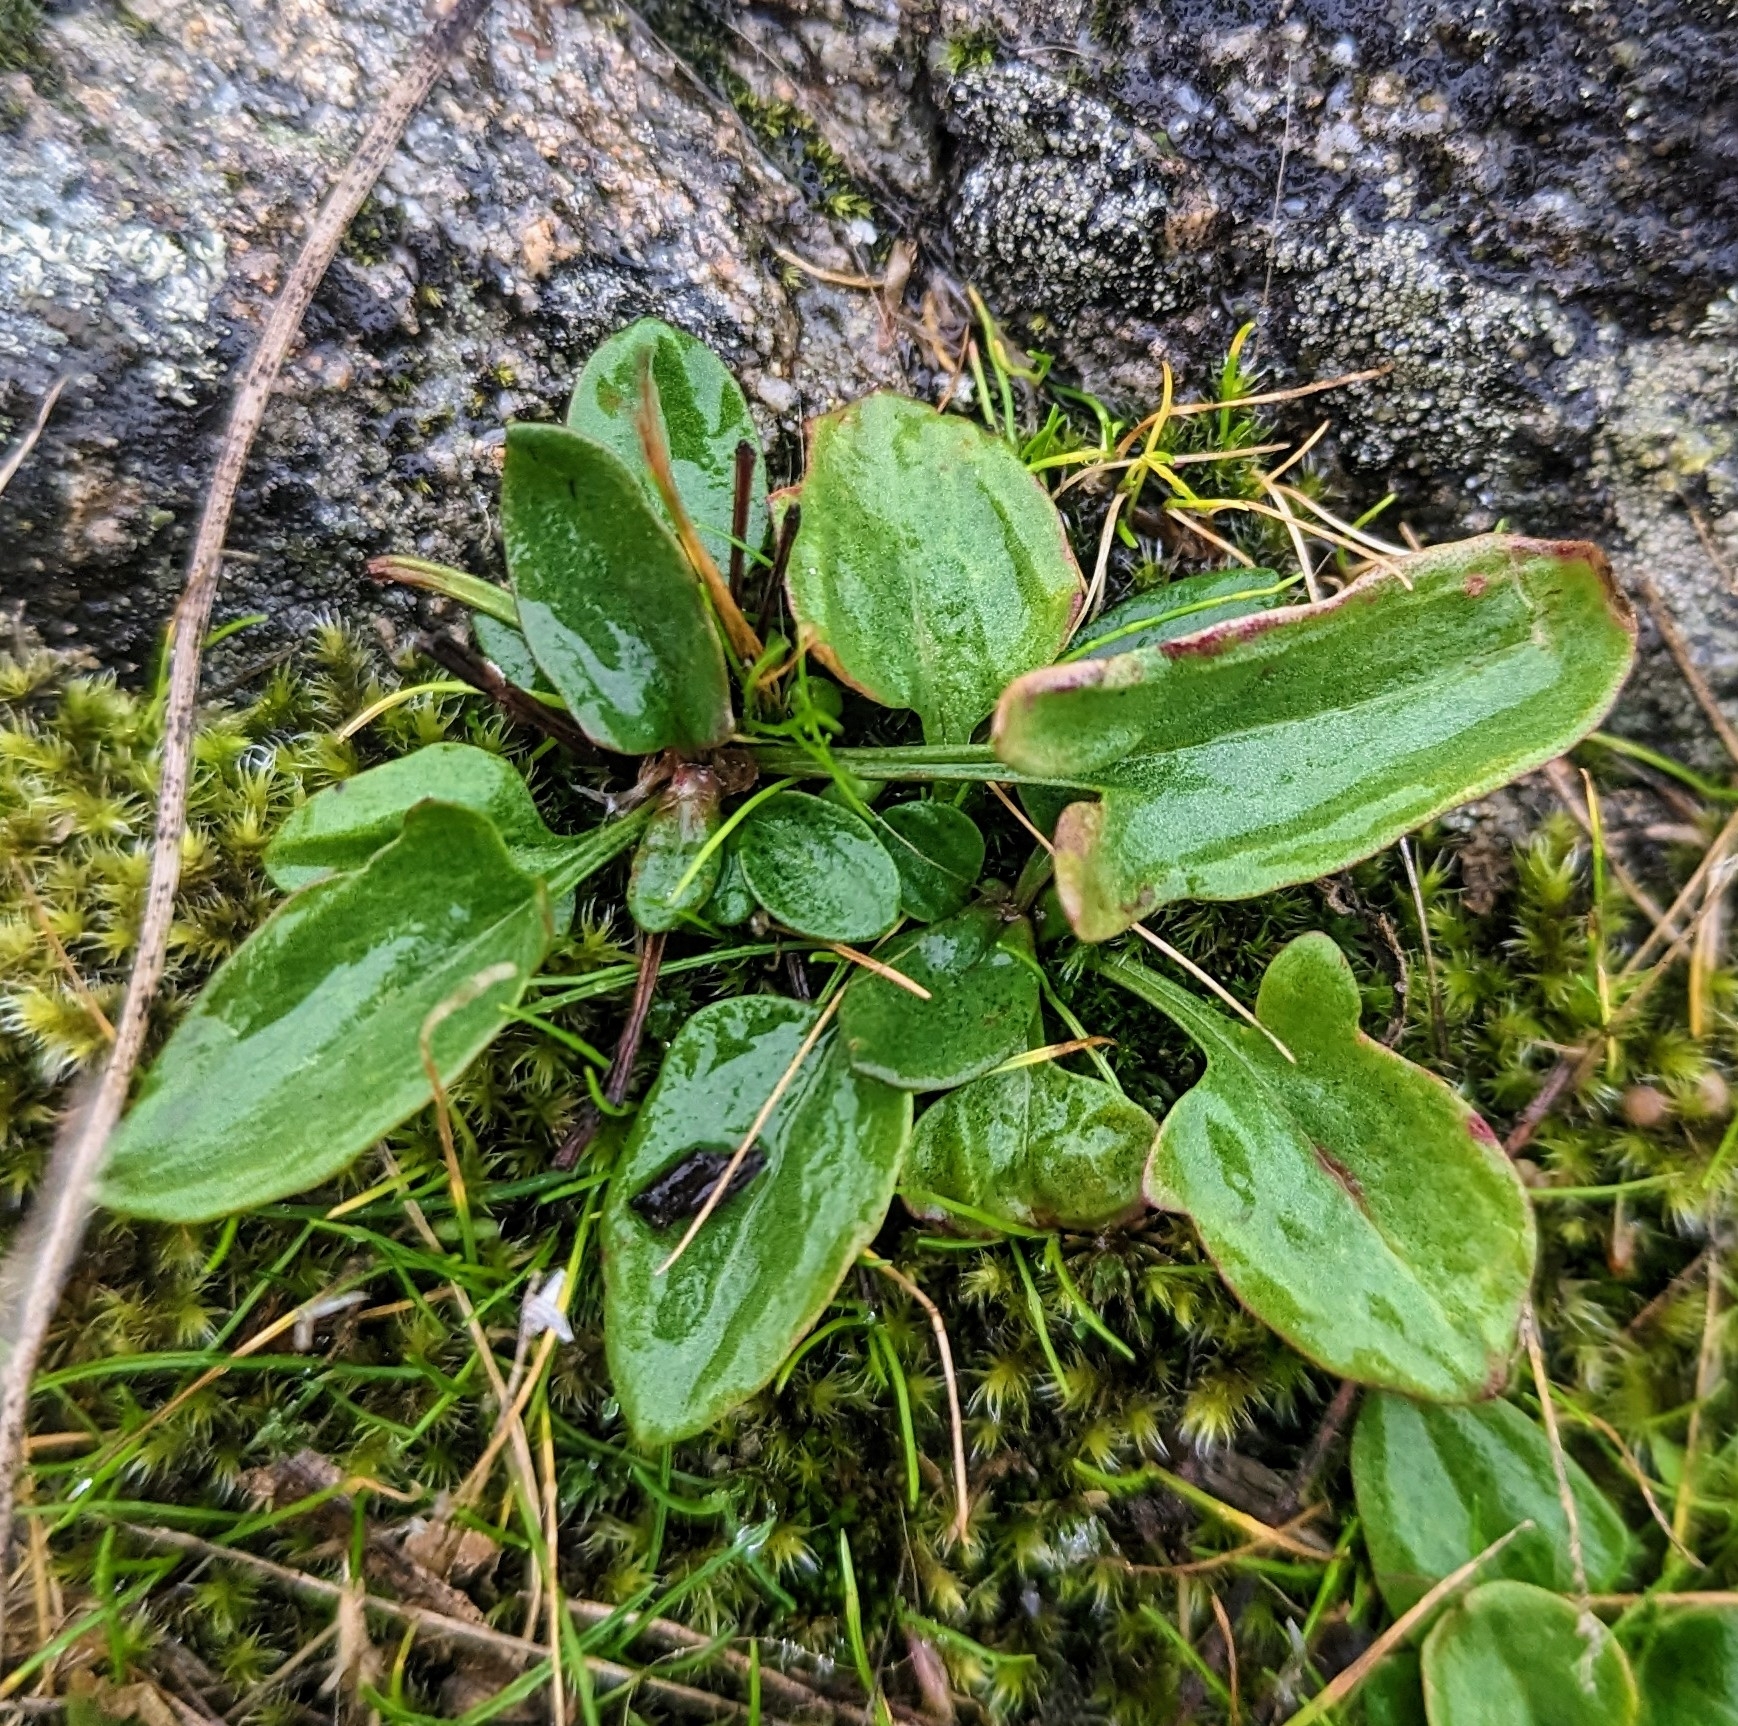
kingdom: Plantae
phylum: Tracheophyta
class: Magnoliopsida
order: Caryophyllales
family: Polygonaceae
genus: Rumex
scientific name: Rumex acetosella
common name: Common sheep sorrel
